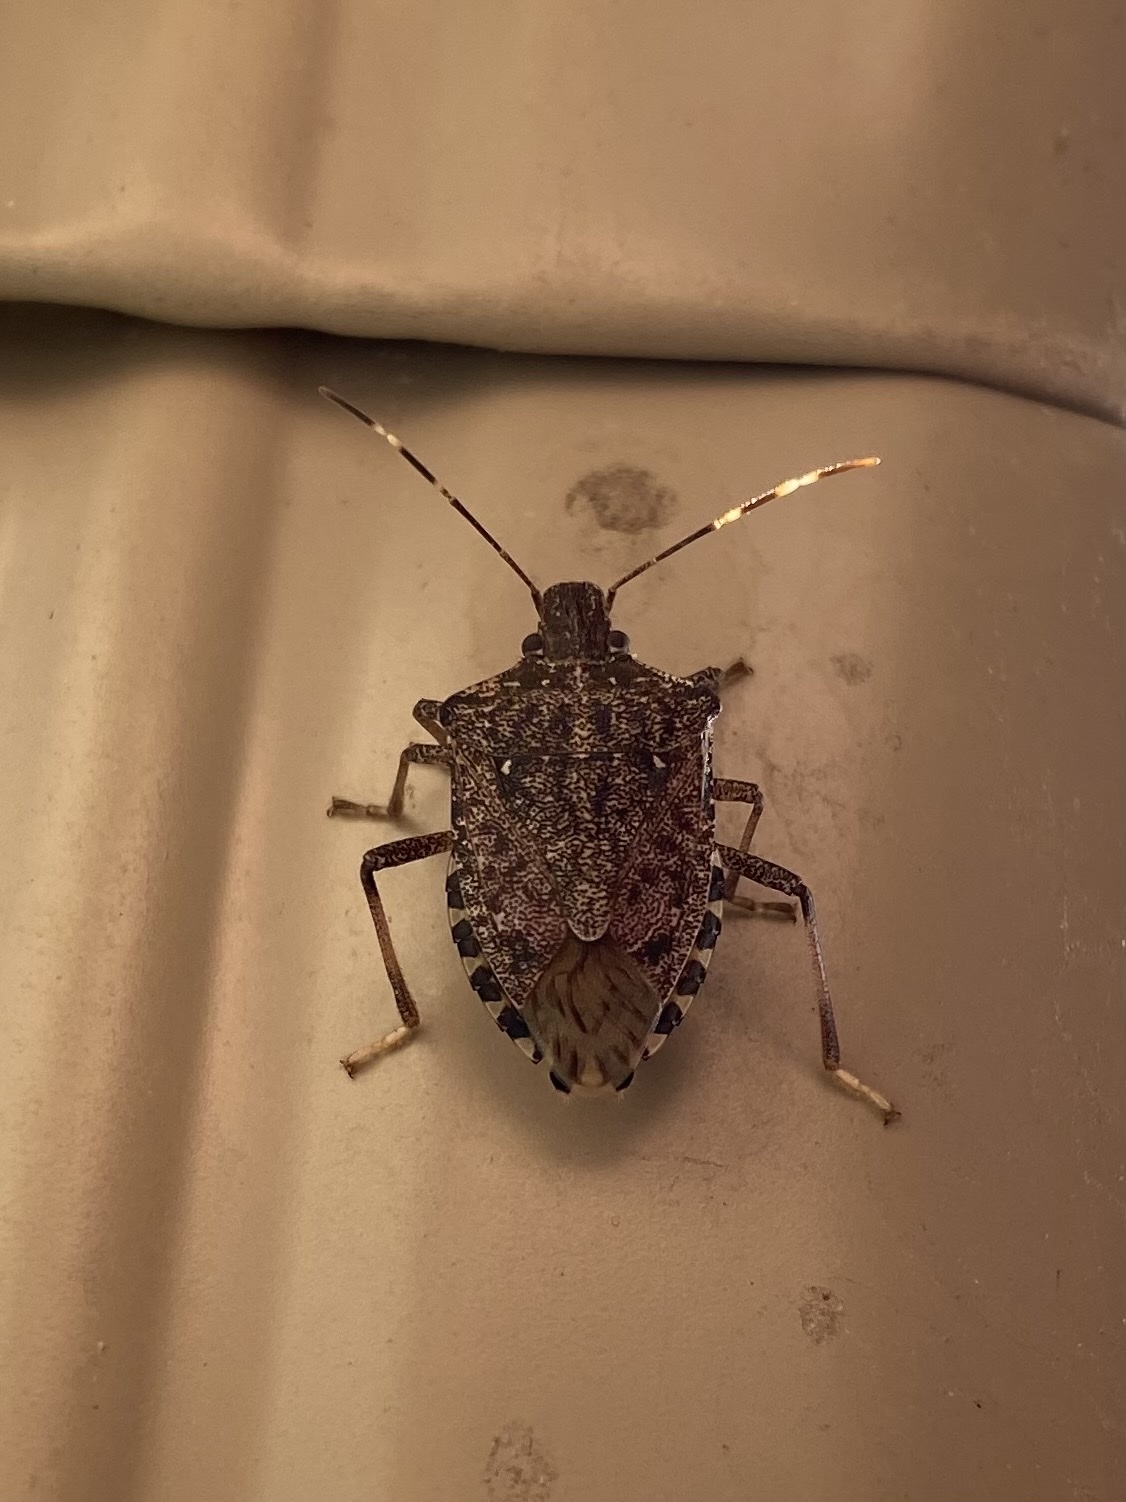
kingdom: Animalia
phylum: Arthropoda
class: Insecta
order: Hemiptera
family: Pentatomidae
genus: Halyomorpha
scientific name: Halyomorpha halys
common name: Brown marmorated stink bug
